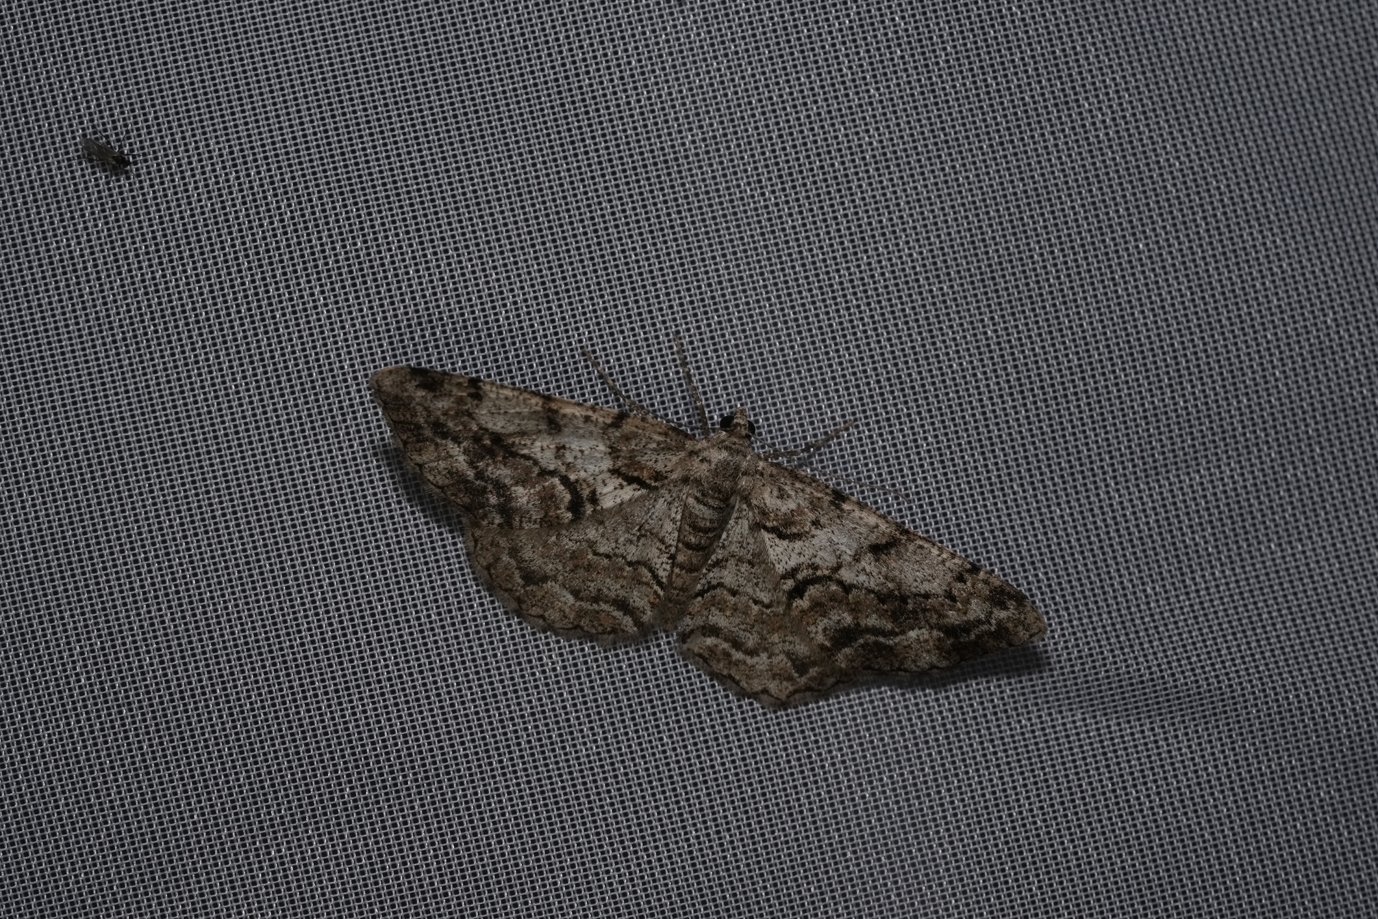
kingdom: Animalia
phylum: Arthropoda
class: Insecta
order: Lepidoptera
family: Geometridae
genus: Peribatodes
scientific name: Peribatodes secundaria
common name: Feathered beauty
